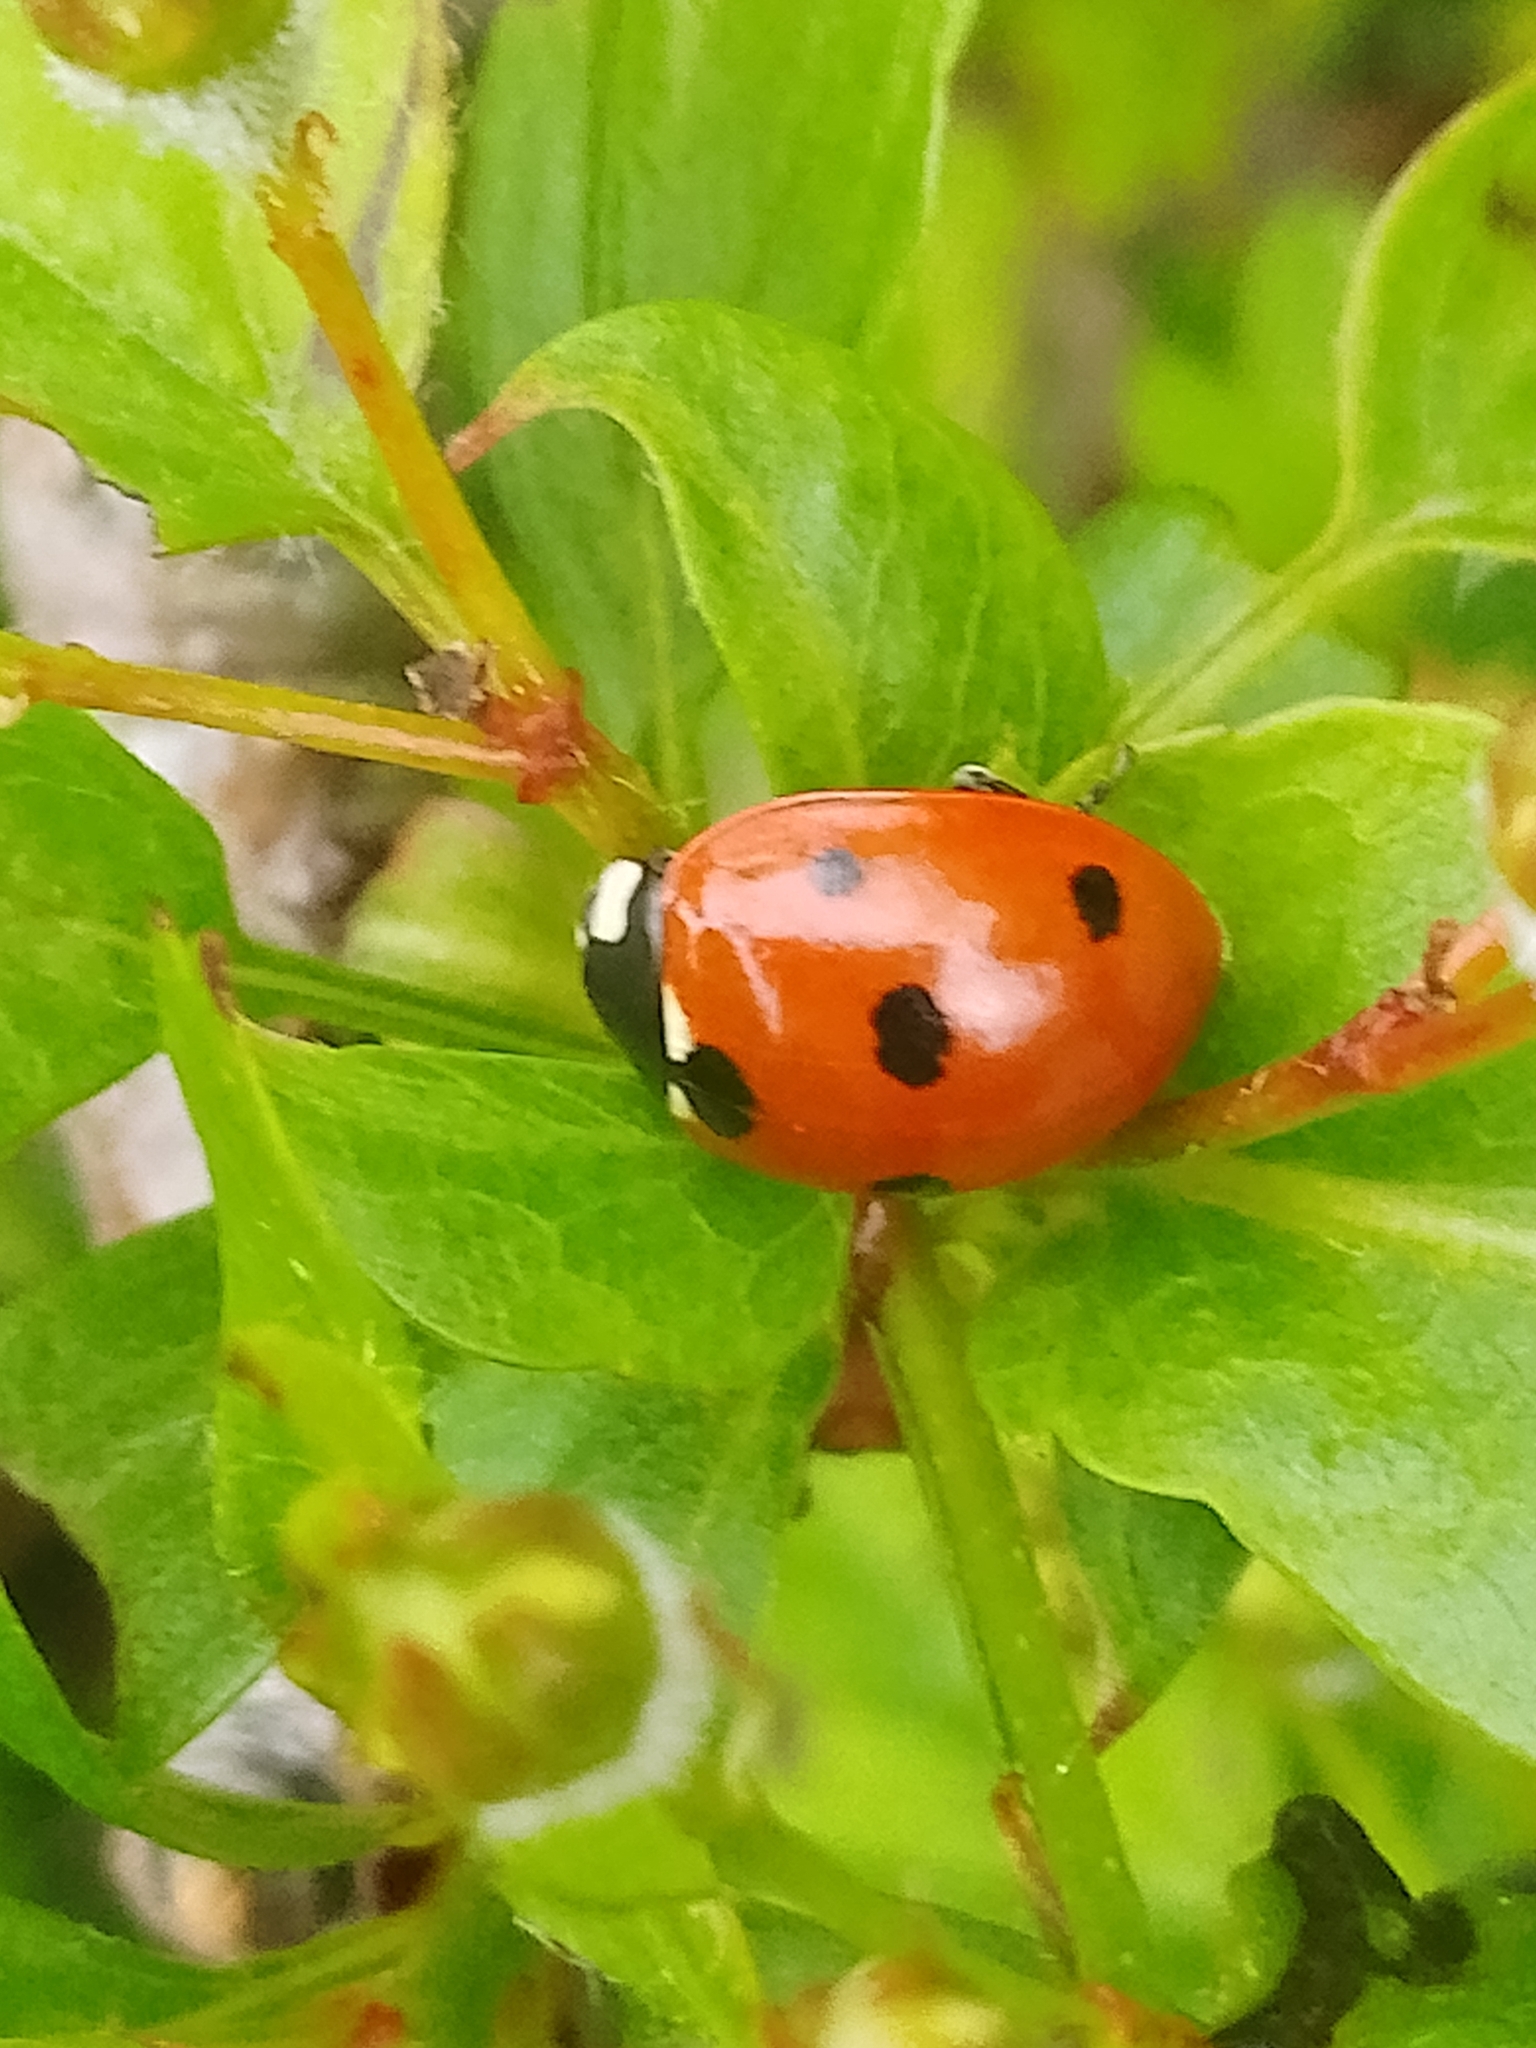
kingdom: Animalia
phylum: Arthropoda
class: Insecta
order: Coleoptera
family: Coccinellidae
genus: Coccinella
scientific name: Coccinella septempunctata
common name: Sevenspotted lady beetle
